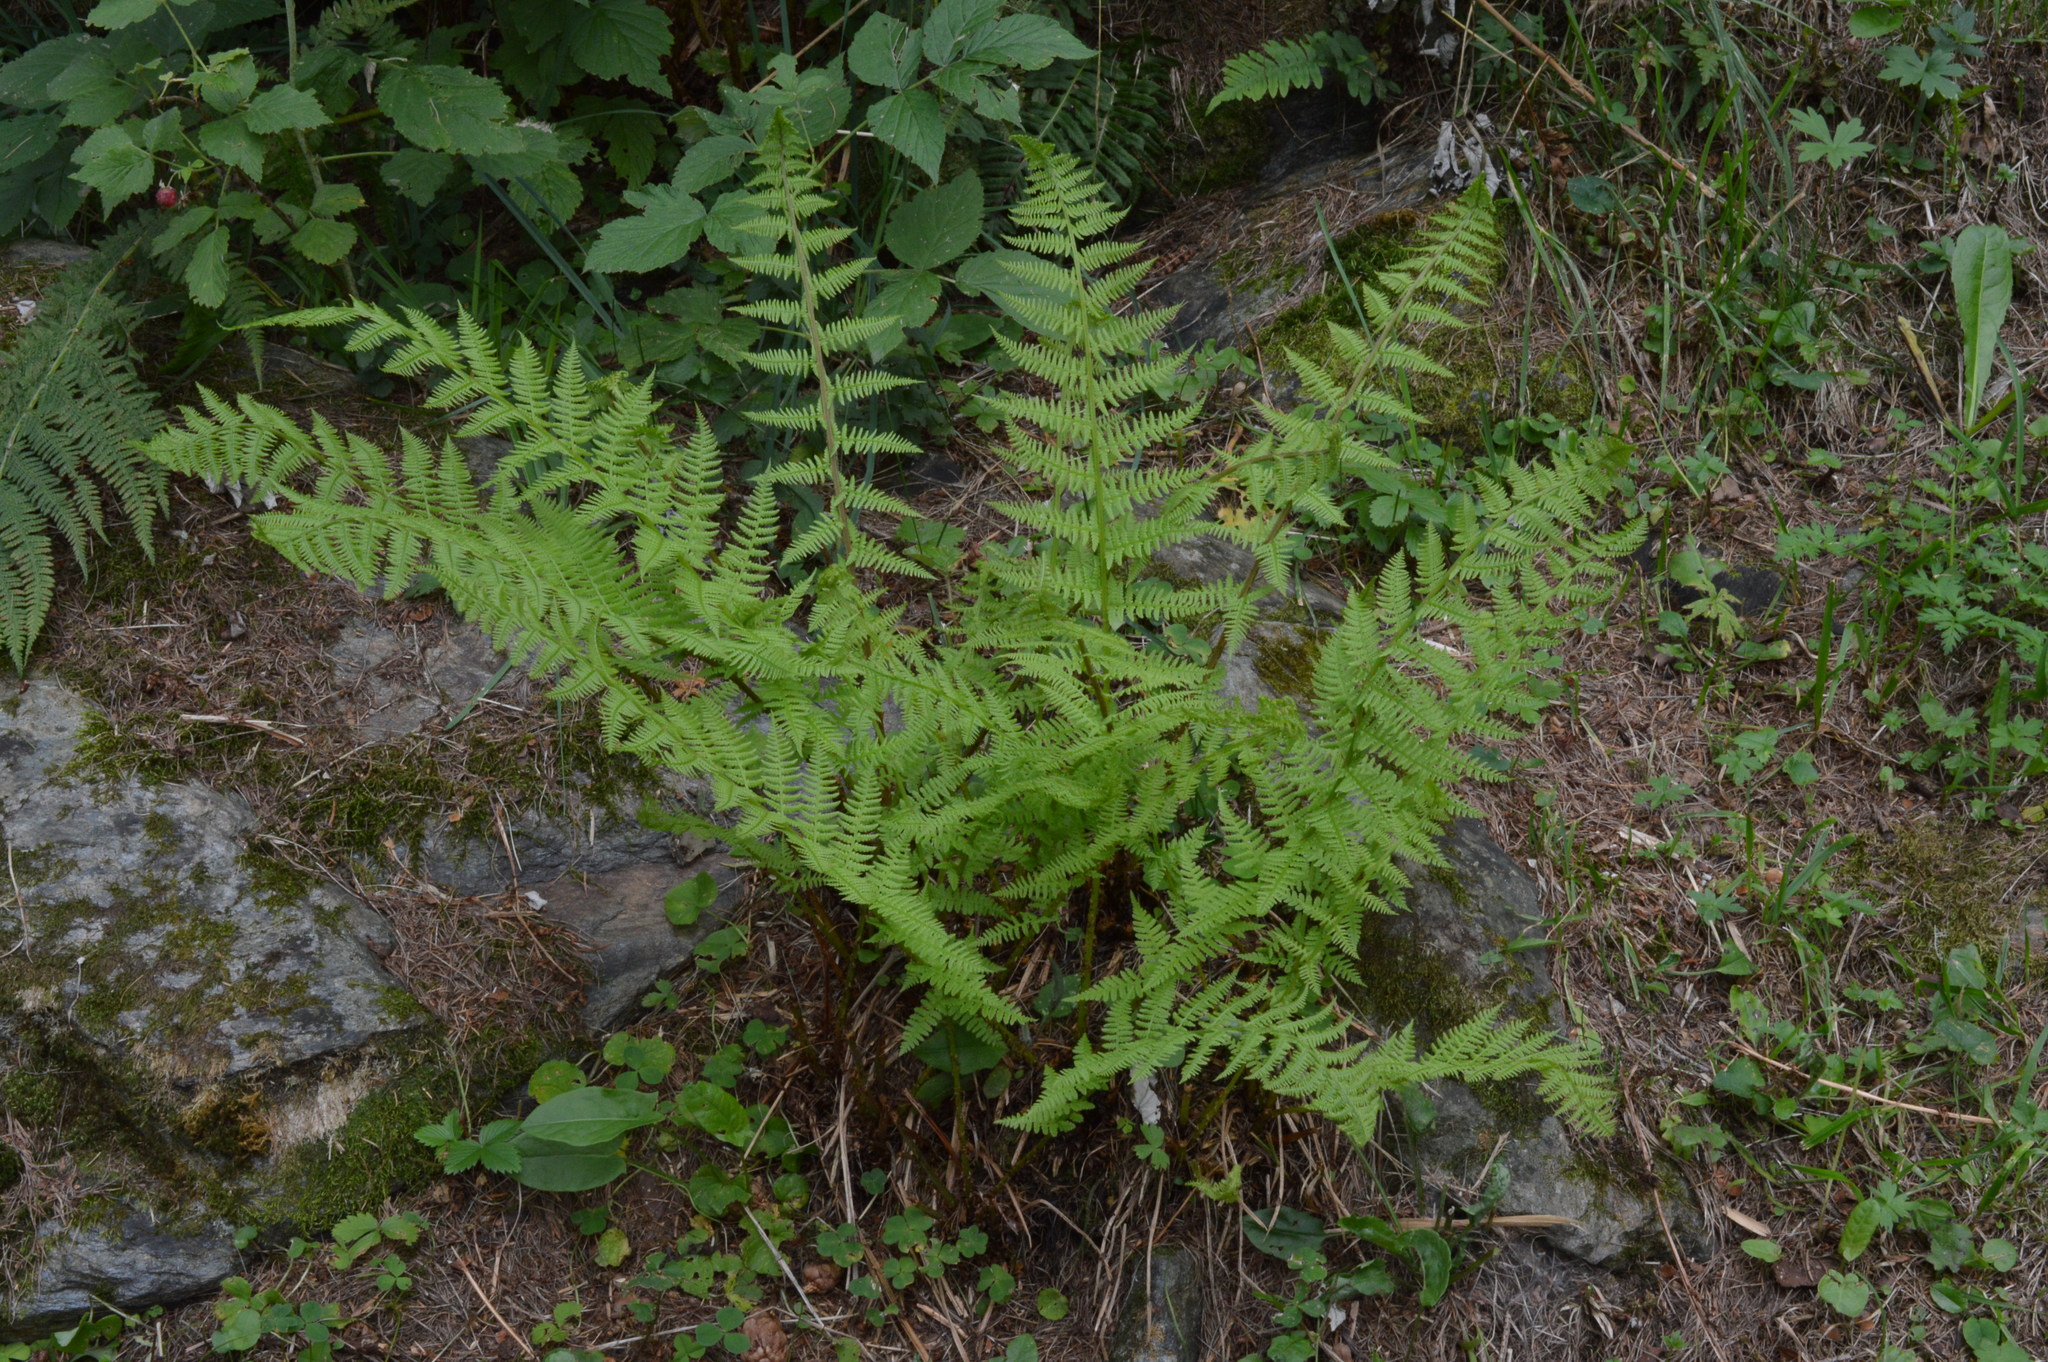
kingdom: Plantae
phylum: Tracheophyta
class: Polypodiopsida
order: Polypodiales
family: Athyriaceae
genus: Athyrium
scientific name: Athyrium filix-femina
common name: Lady fern
